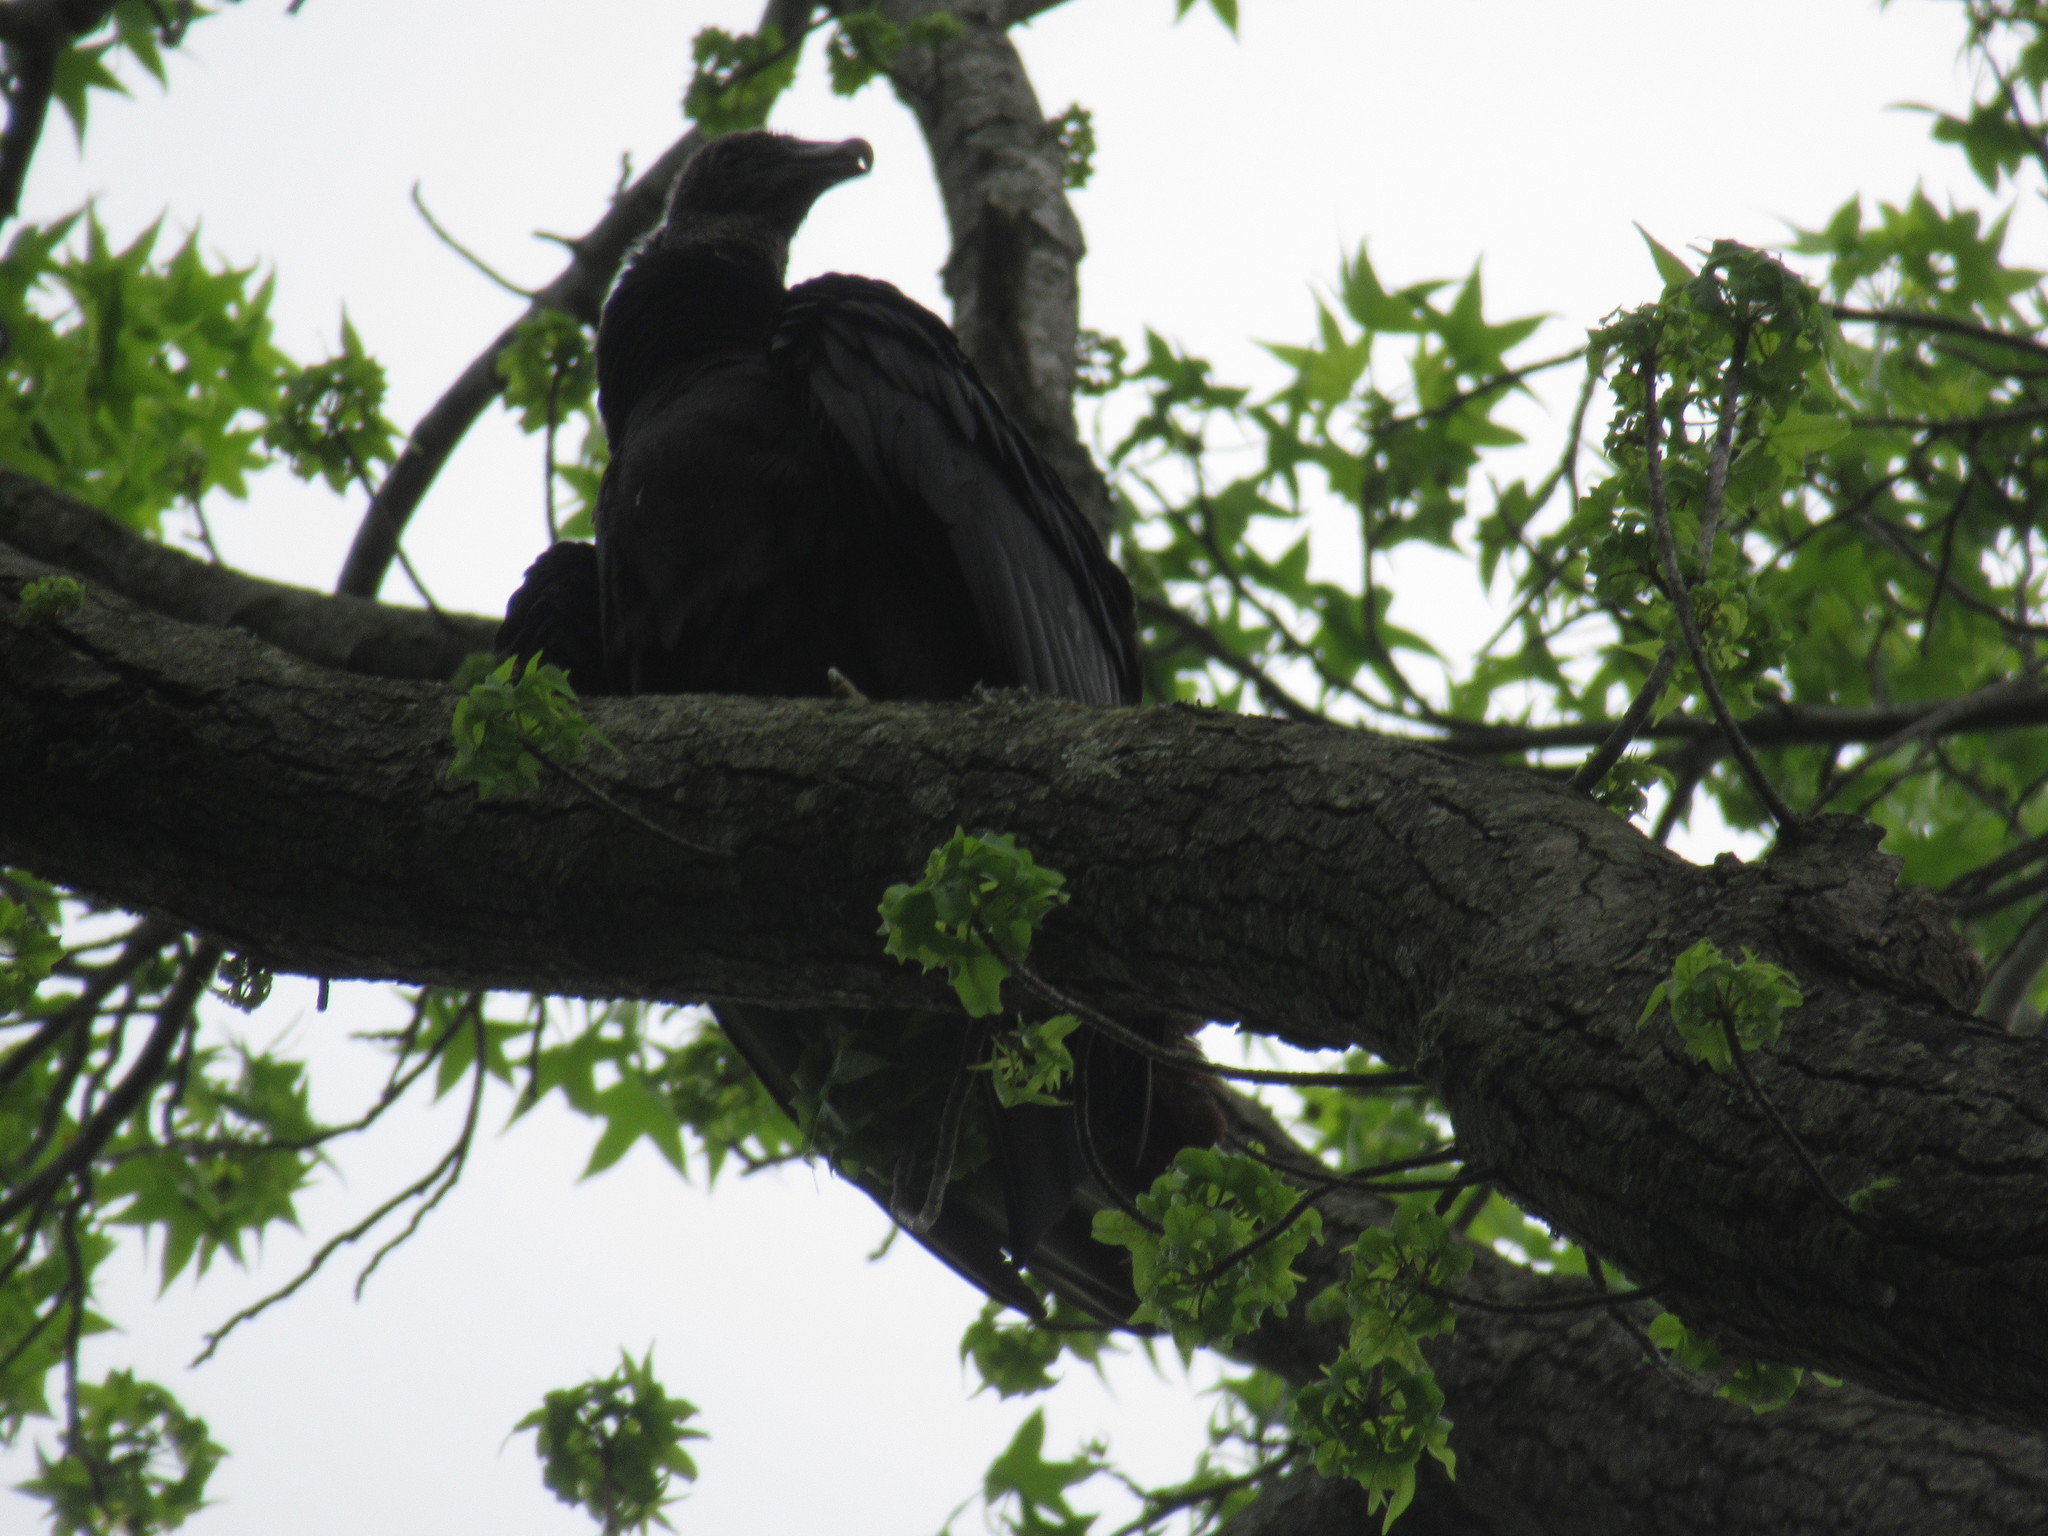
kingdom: Animalia
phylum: Chordata
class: Aves
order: Accipitriformes
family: Cathartidae
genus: Coragyps
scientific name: Coragyps atratus
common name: Black vulture
